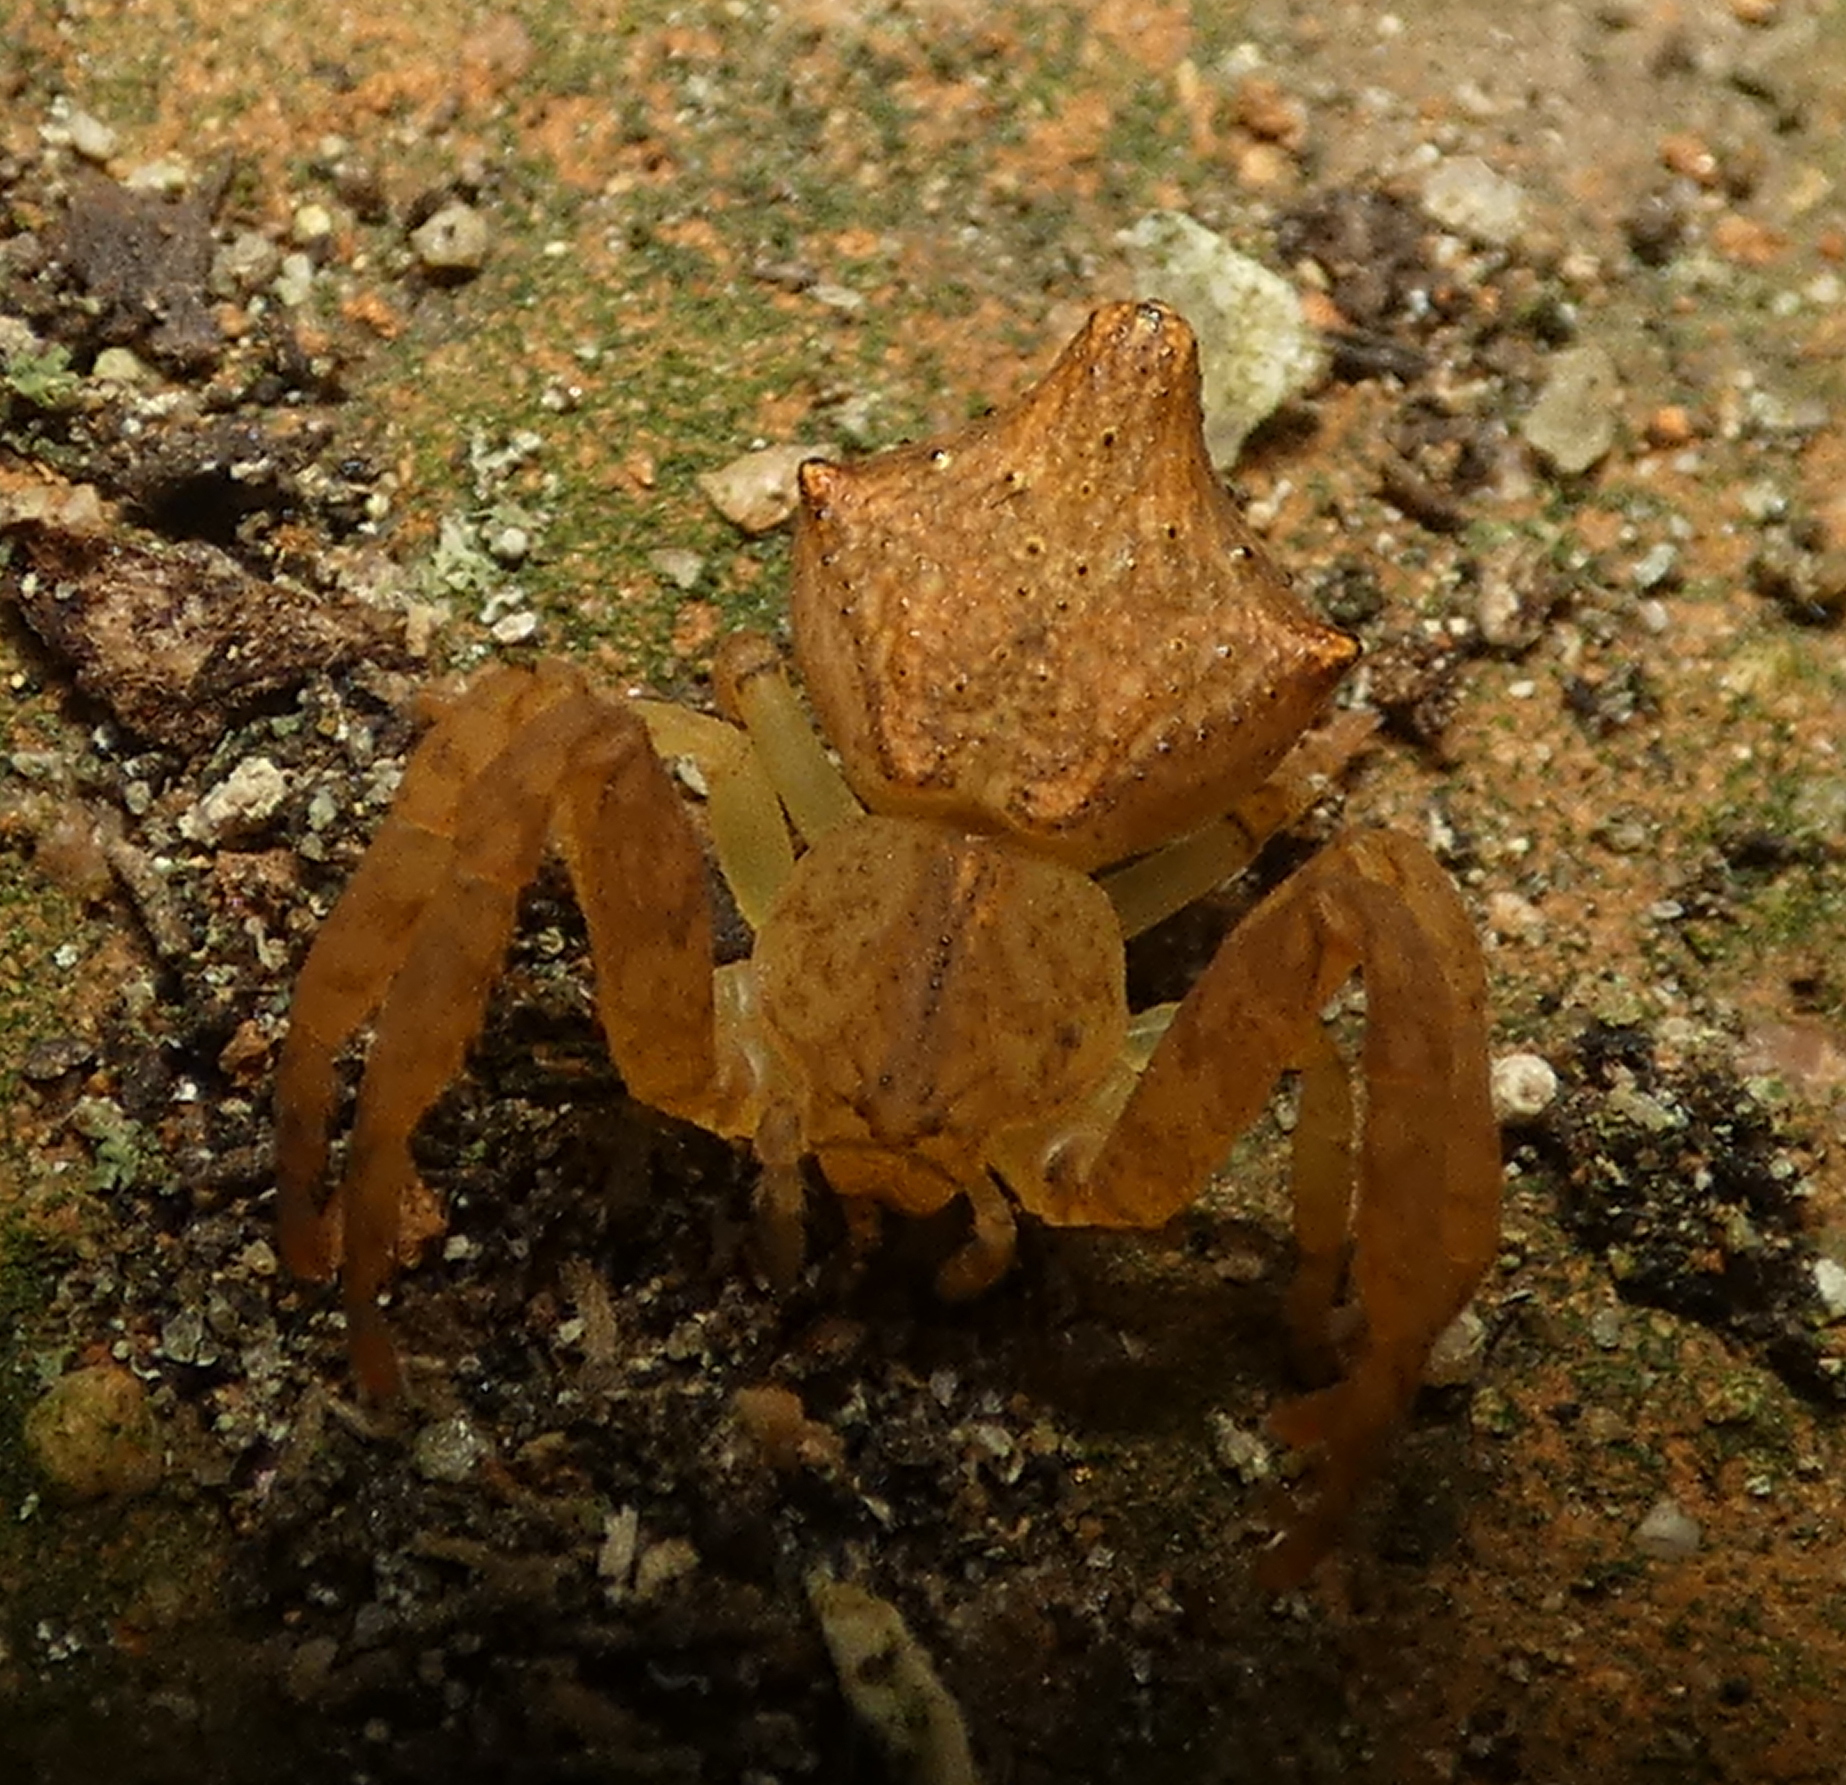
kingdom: Animalia
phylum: Arthropoda
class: Arachnida
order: Araneae
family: Thomisidae
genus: Epicadus
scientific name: Epicadus taczanowskii
